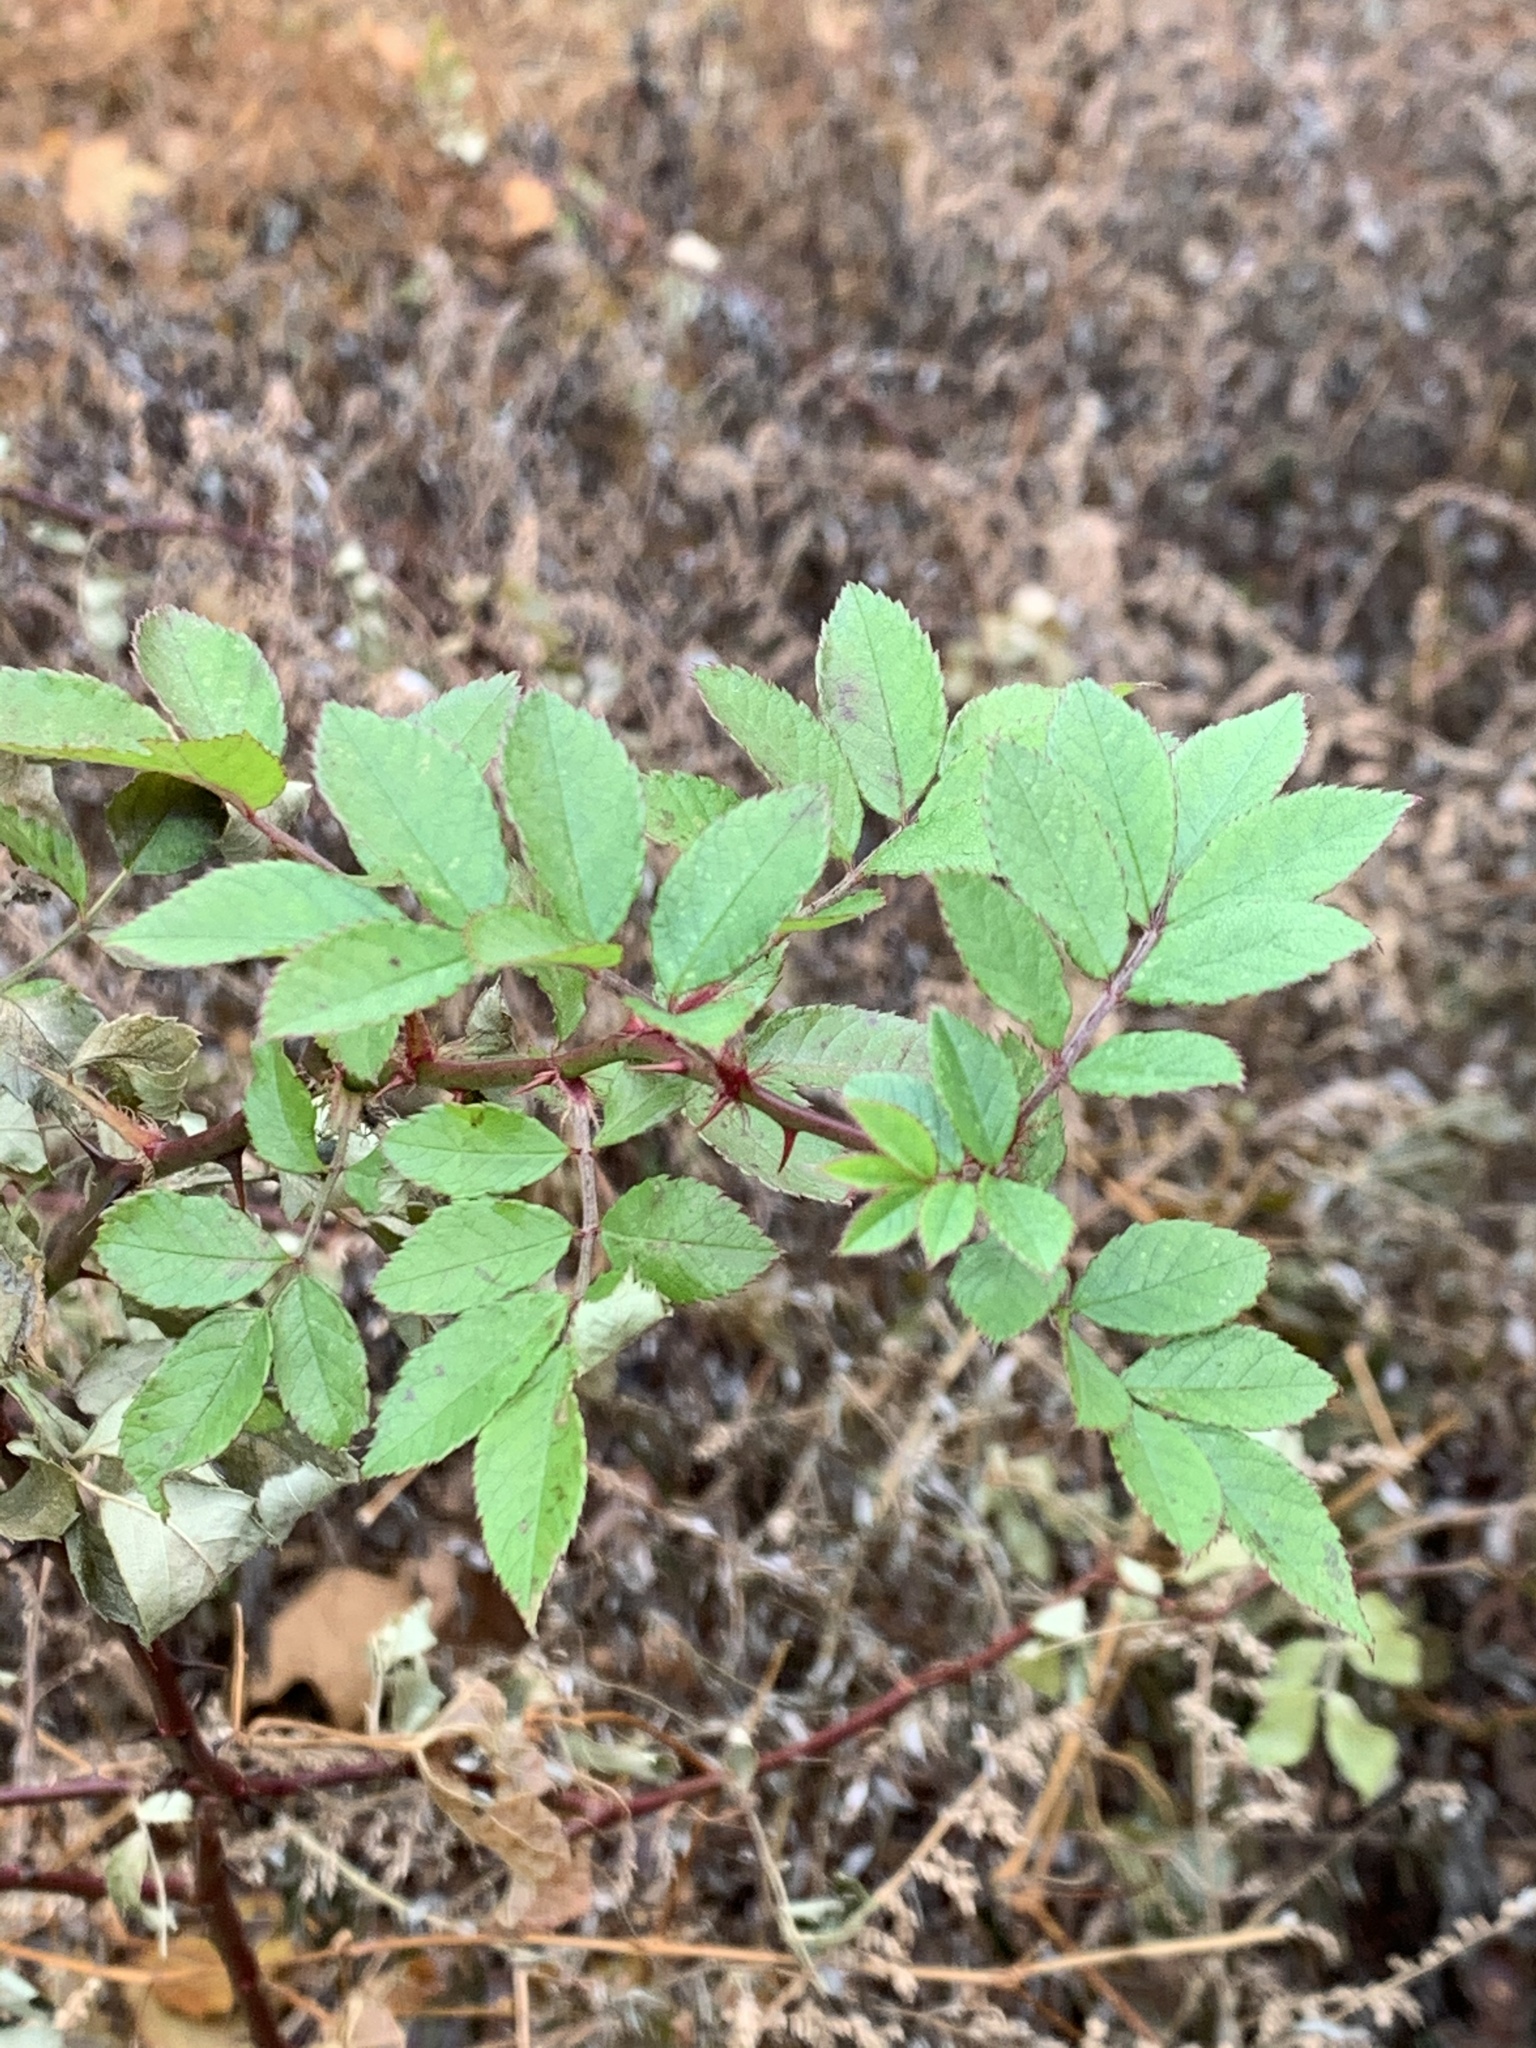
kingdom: Plantae
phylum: Tracheophyta
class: Magnoliopsida
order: Rosales
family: Rosaceae
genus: Rosa
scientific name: Rosa multiflora
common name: Multiflora rose
